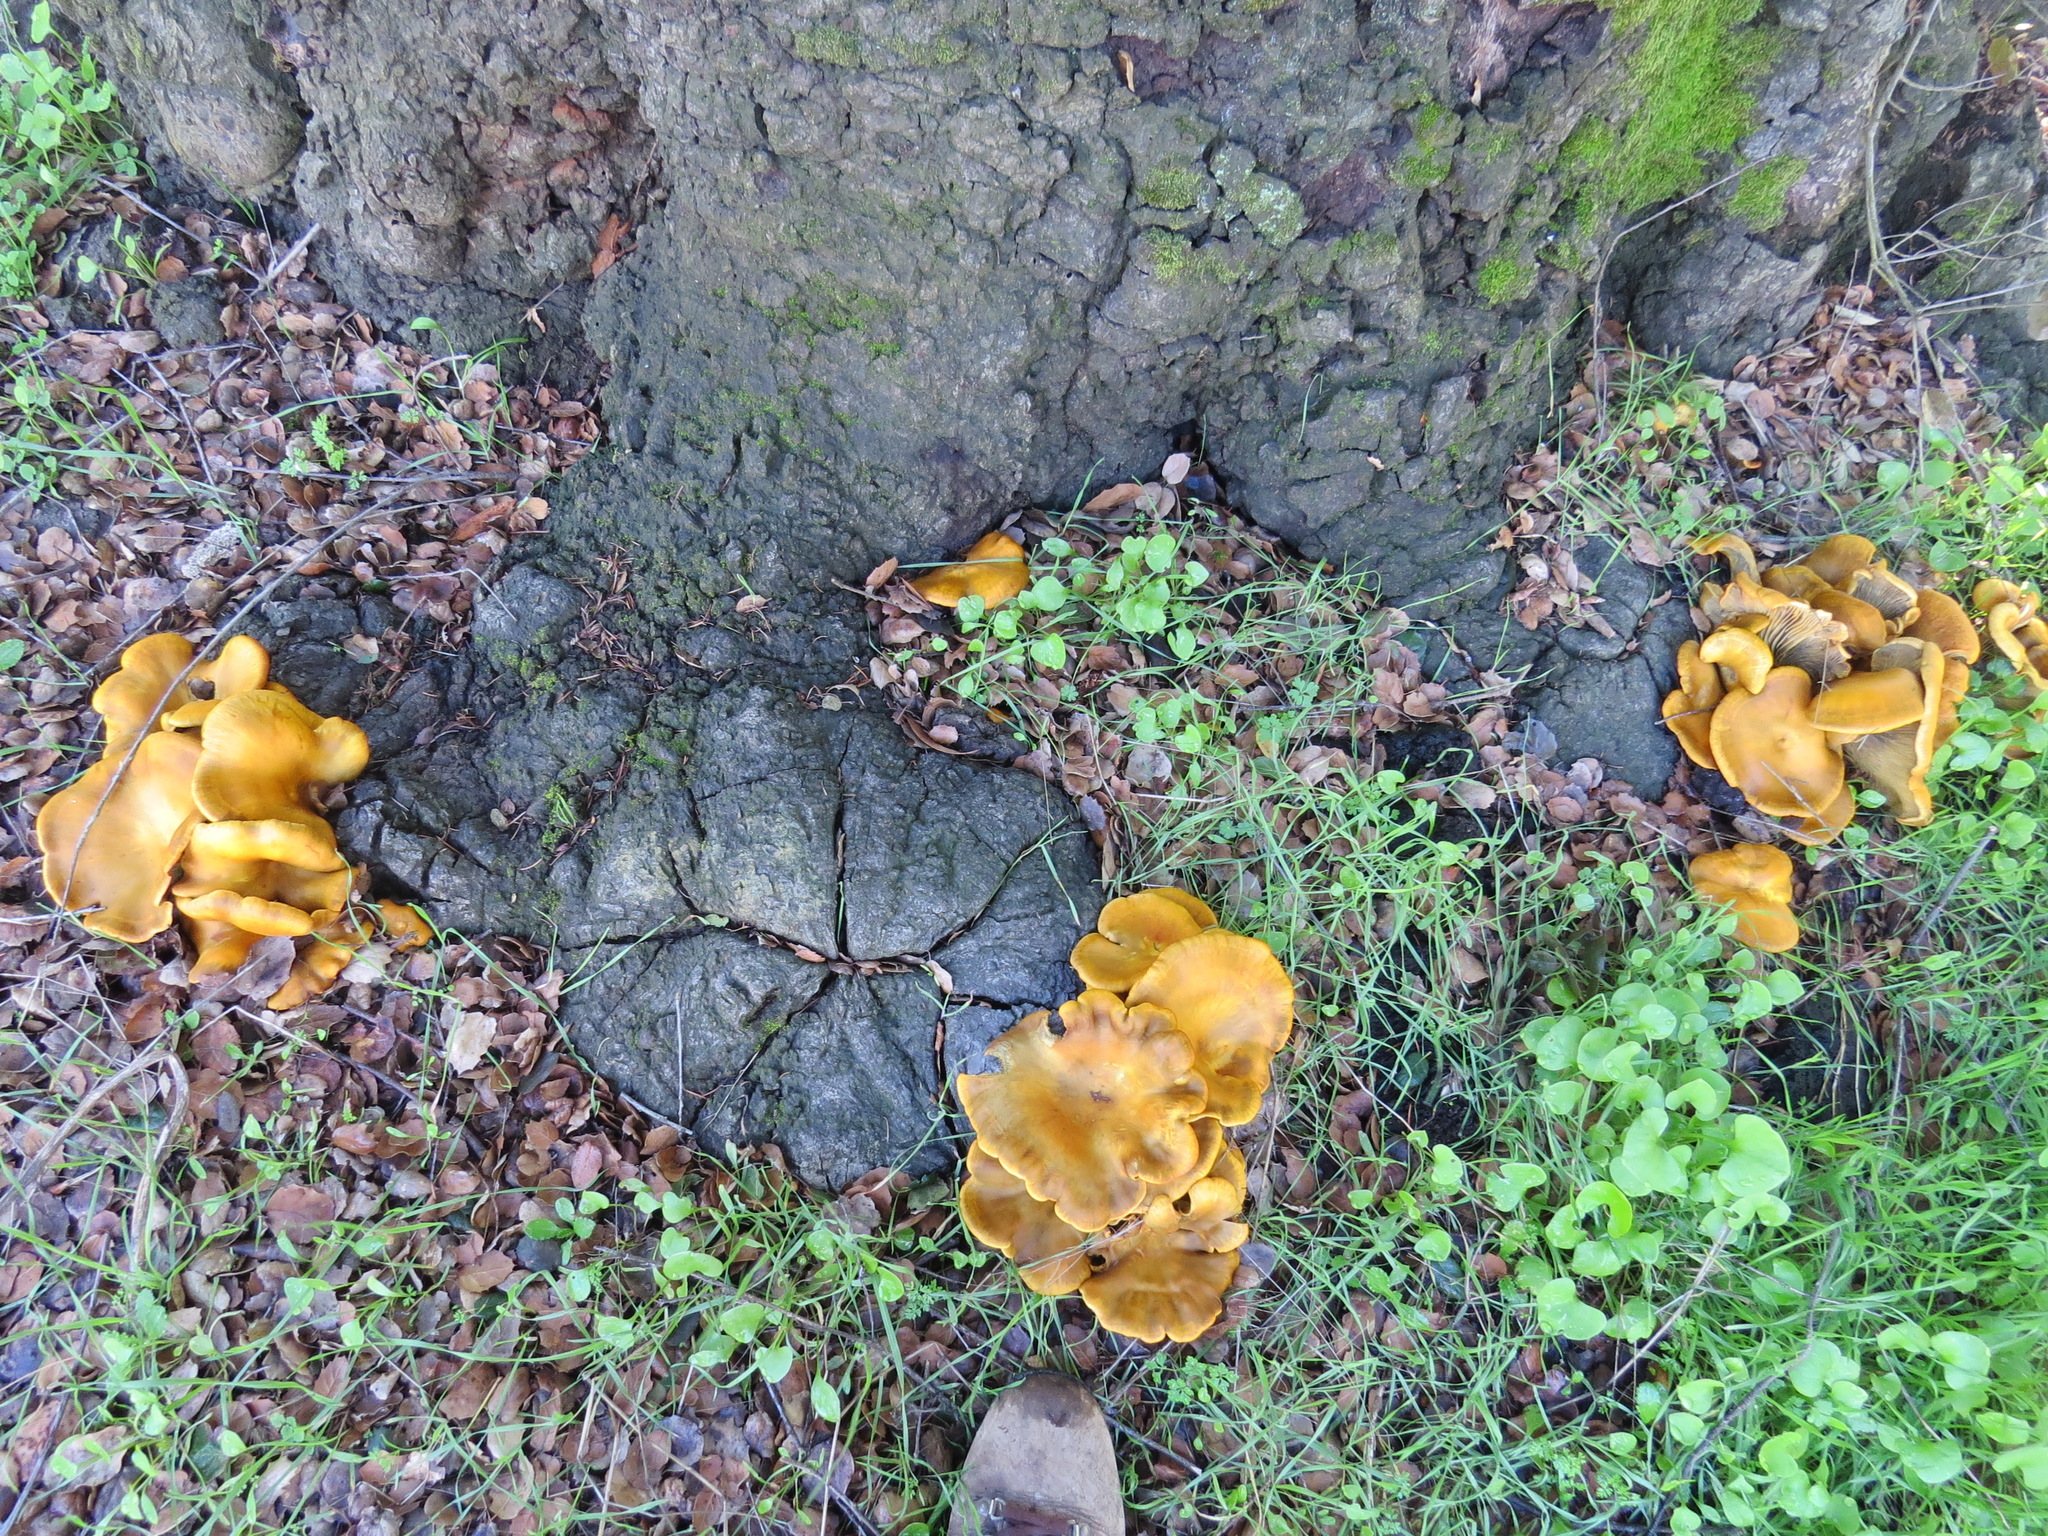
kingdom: Fungi
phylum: Basidiomycota
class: Agaricomycetes
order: Agaricales
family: Omphalotaceae
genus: Omphalotus
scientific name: Omphalotus olivascens
